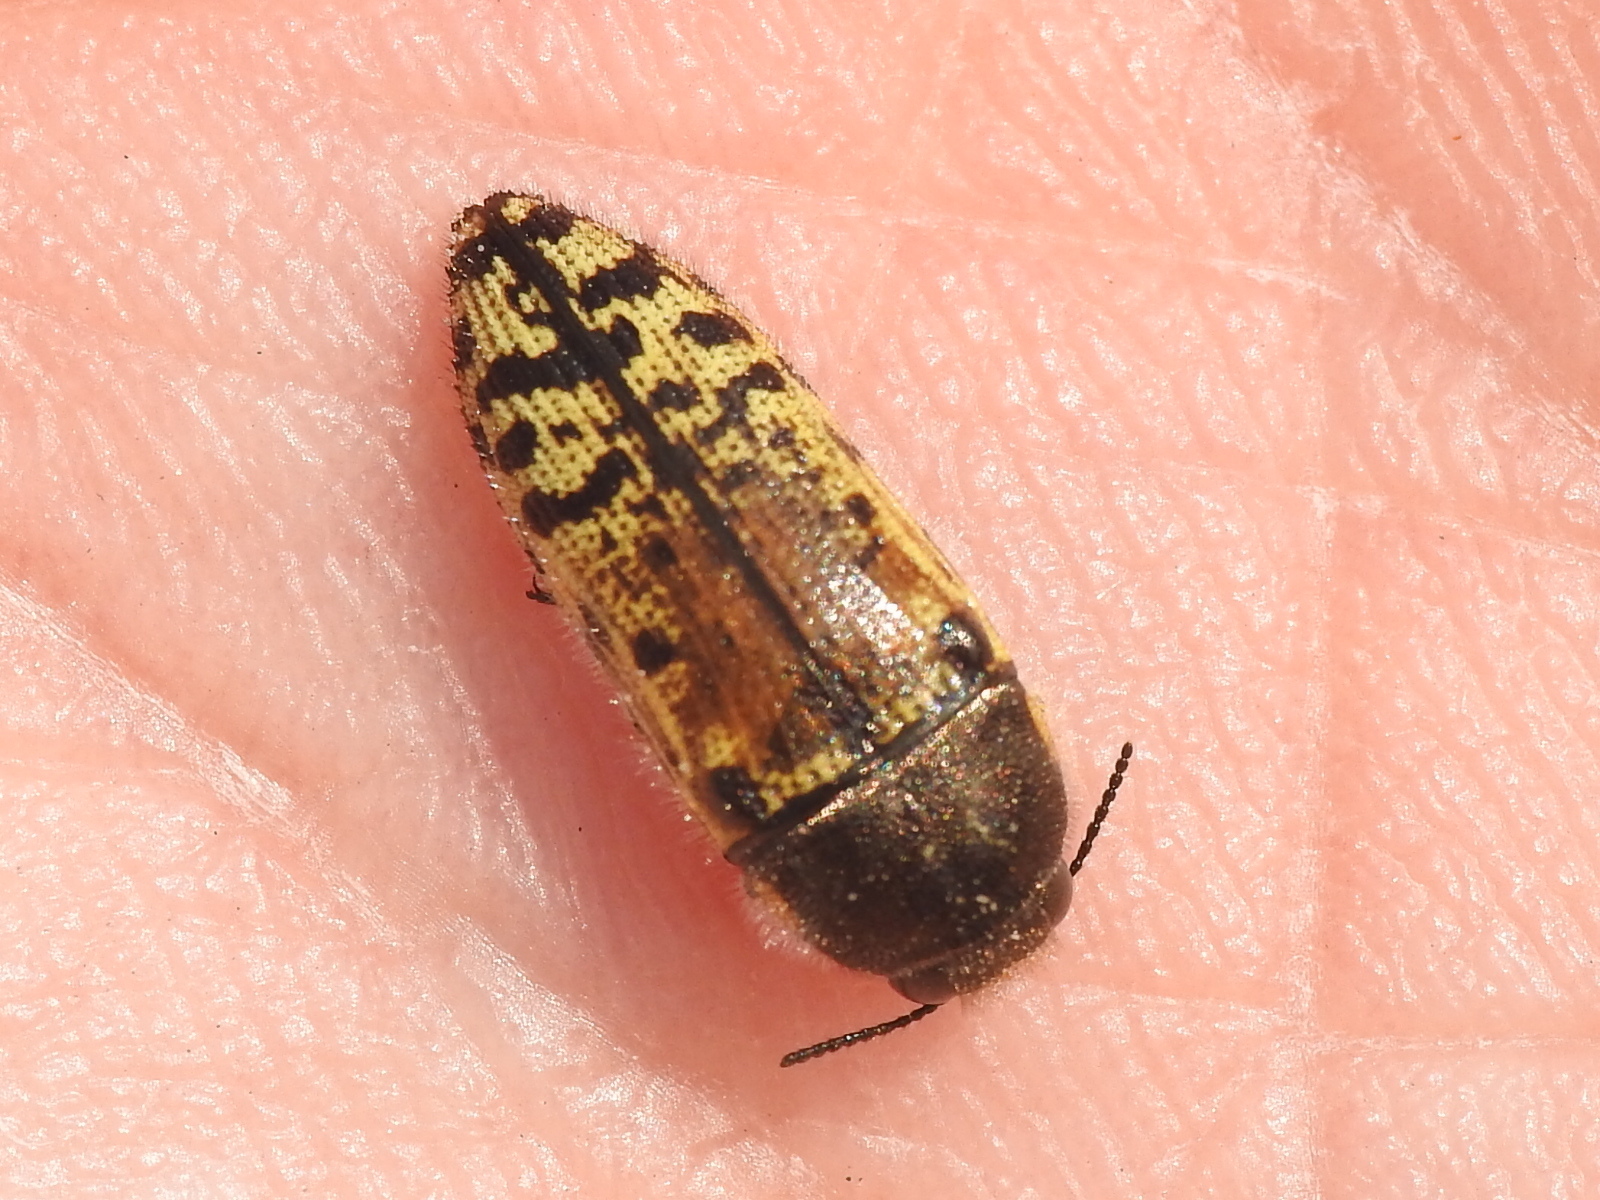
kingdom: Animalia
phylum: Arthropoda
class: Insecta
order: Coleoptera
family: Buprestidae
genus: Acmaeodera
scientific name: Acmaeodera mixta
